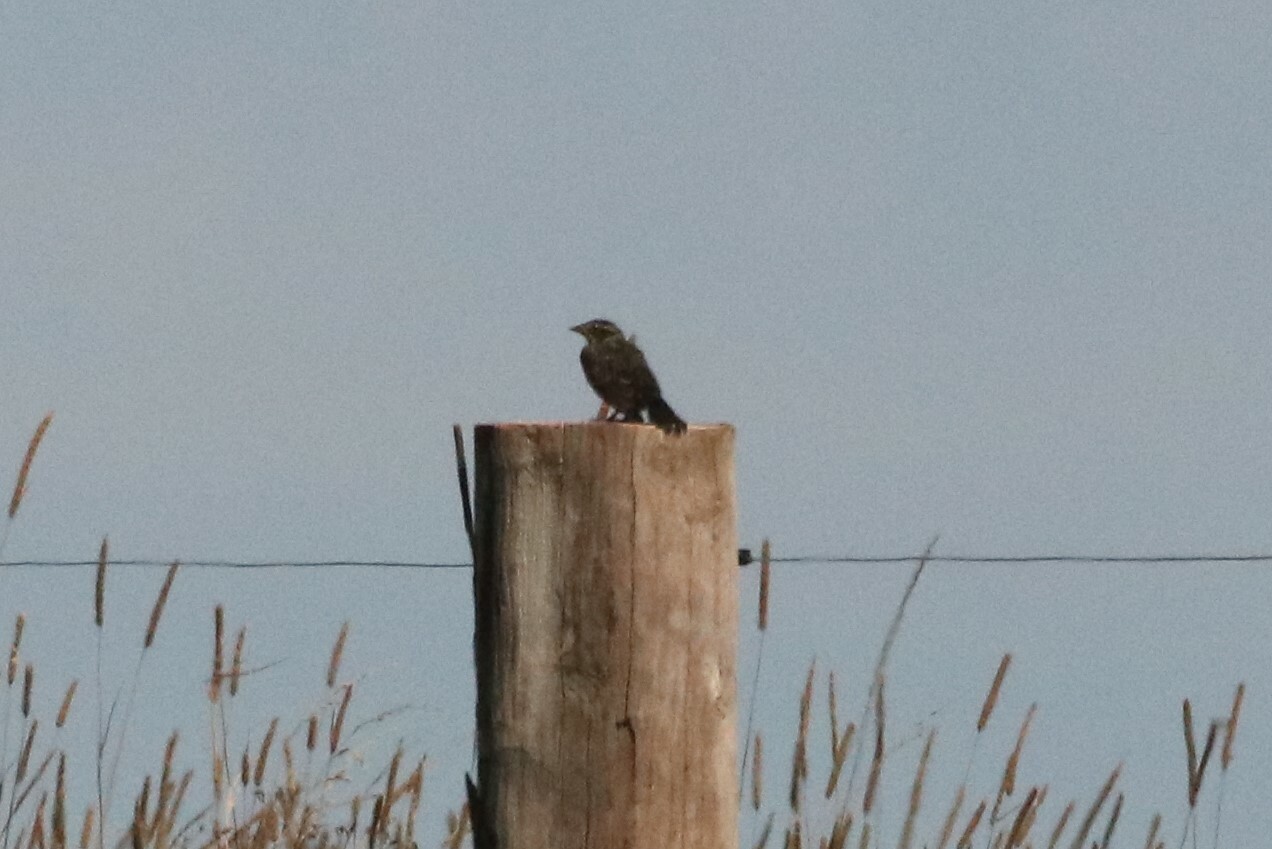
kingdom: Animalia
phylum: Chordata
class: Aves
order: Passeriformes
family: Icteridae
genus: Agelaius
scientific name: Agelaius phoeniceus
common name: Red-winged blackbird
